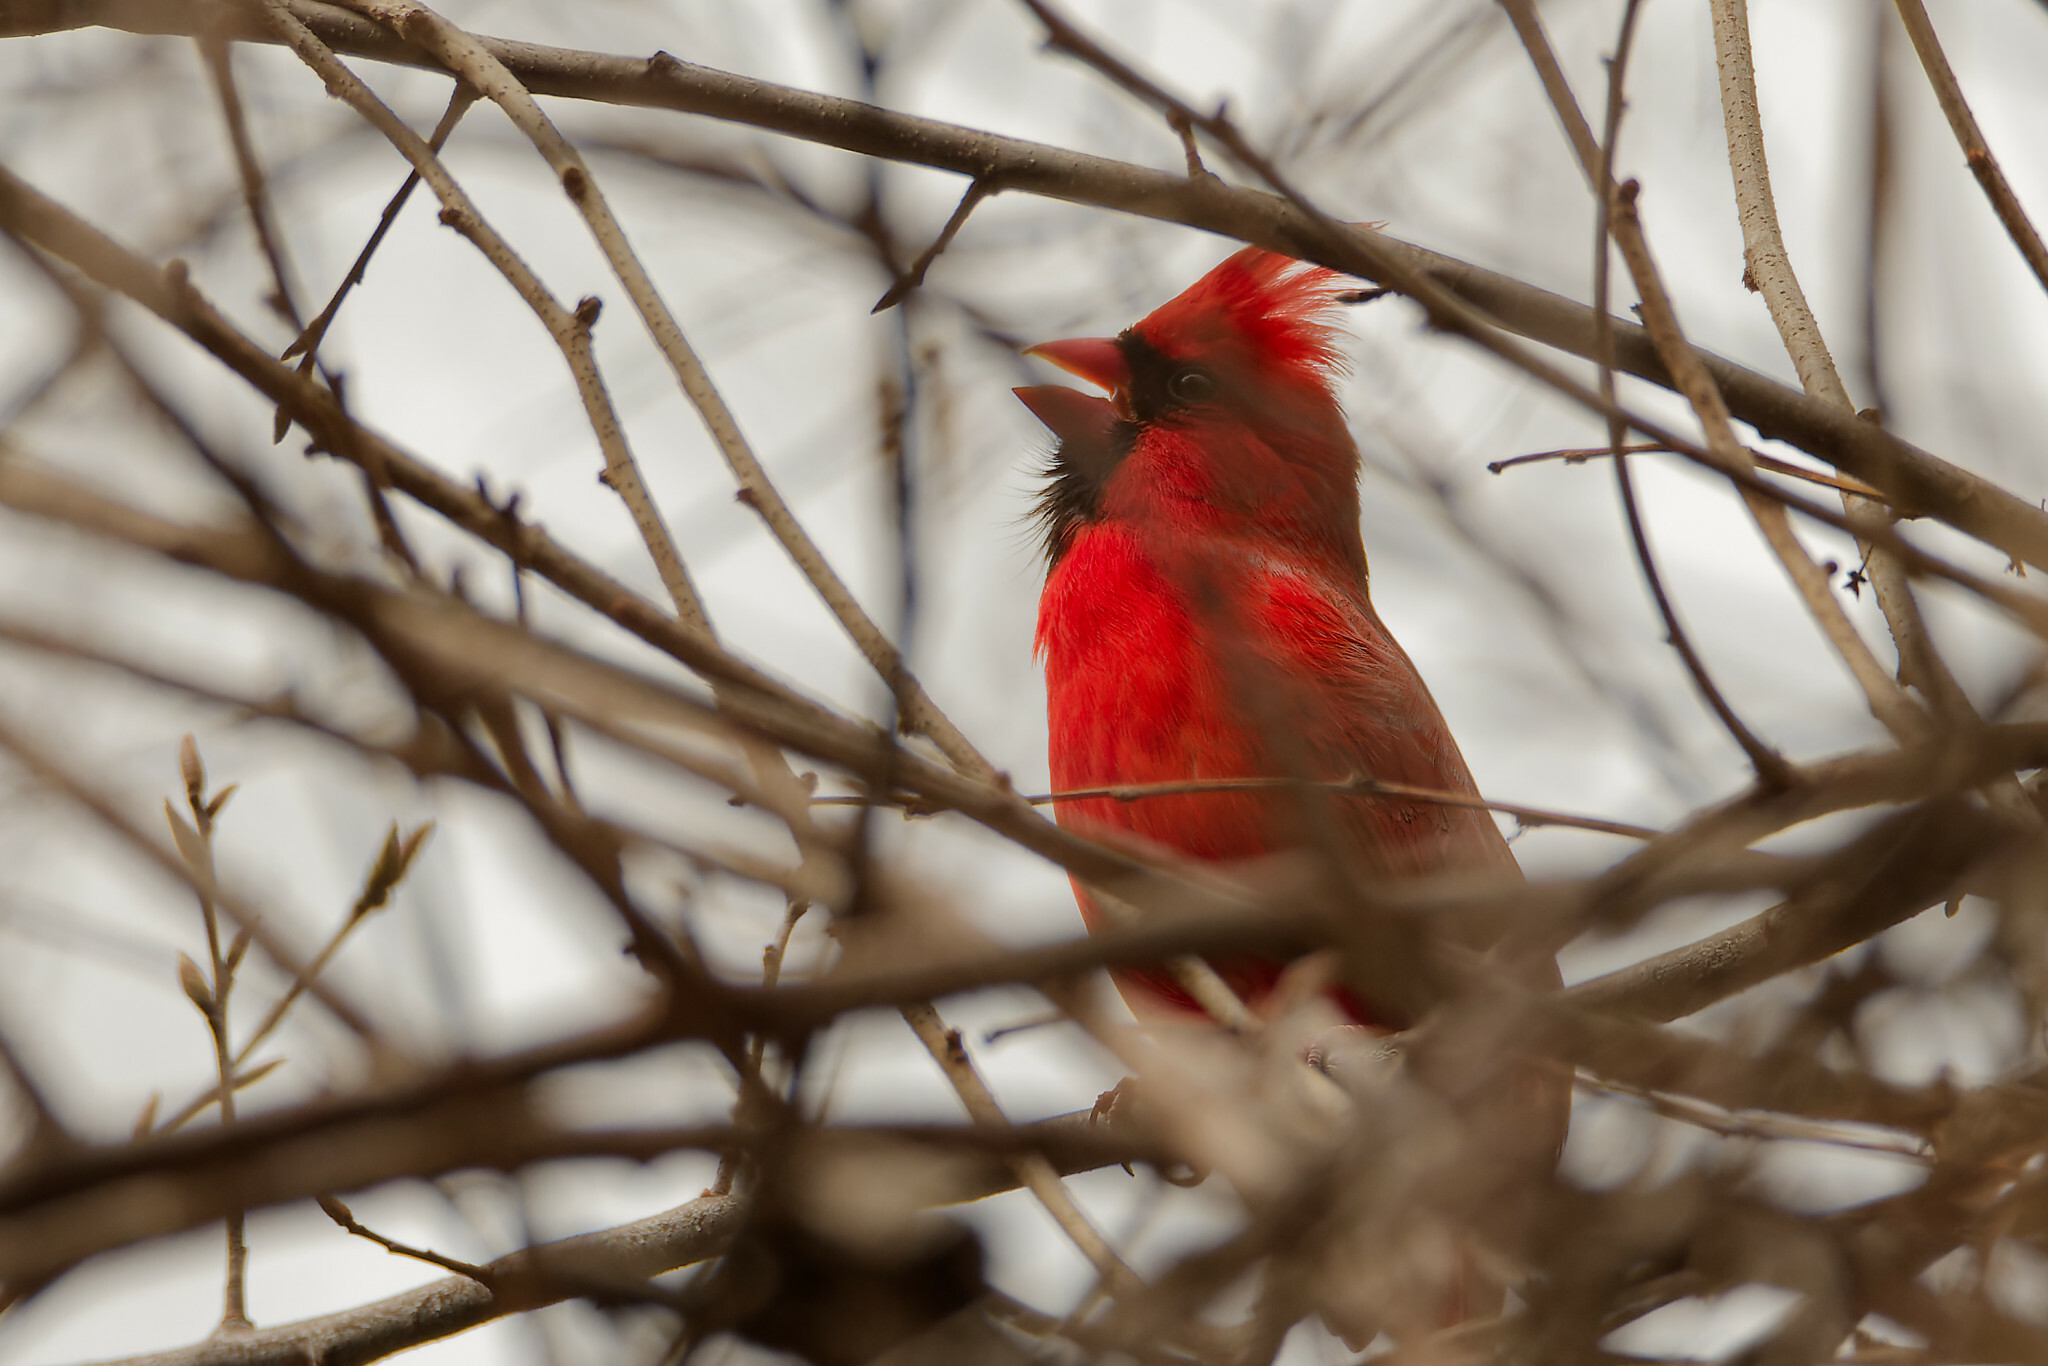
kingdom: Animalia
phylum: Chordata
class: Aves
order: Passeriformes
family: Cardinalidae
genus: Cardinalis
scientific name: Cardinalis cardinalis
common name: Northern cardinal
